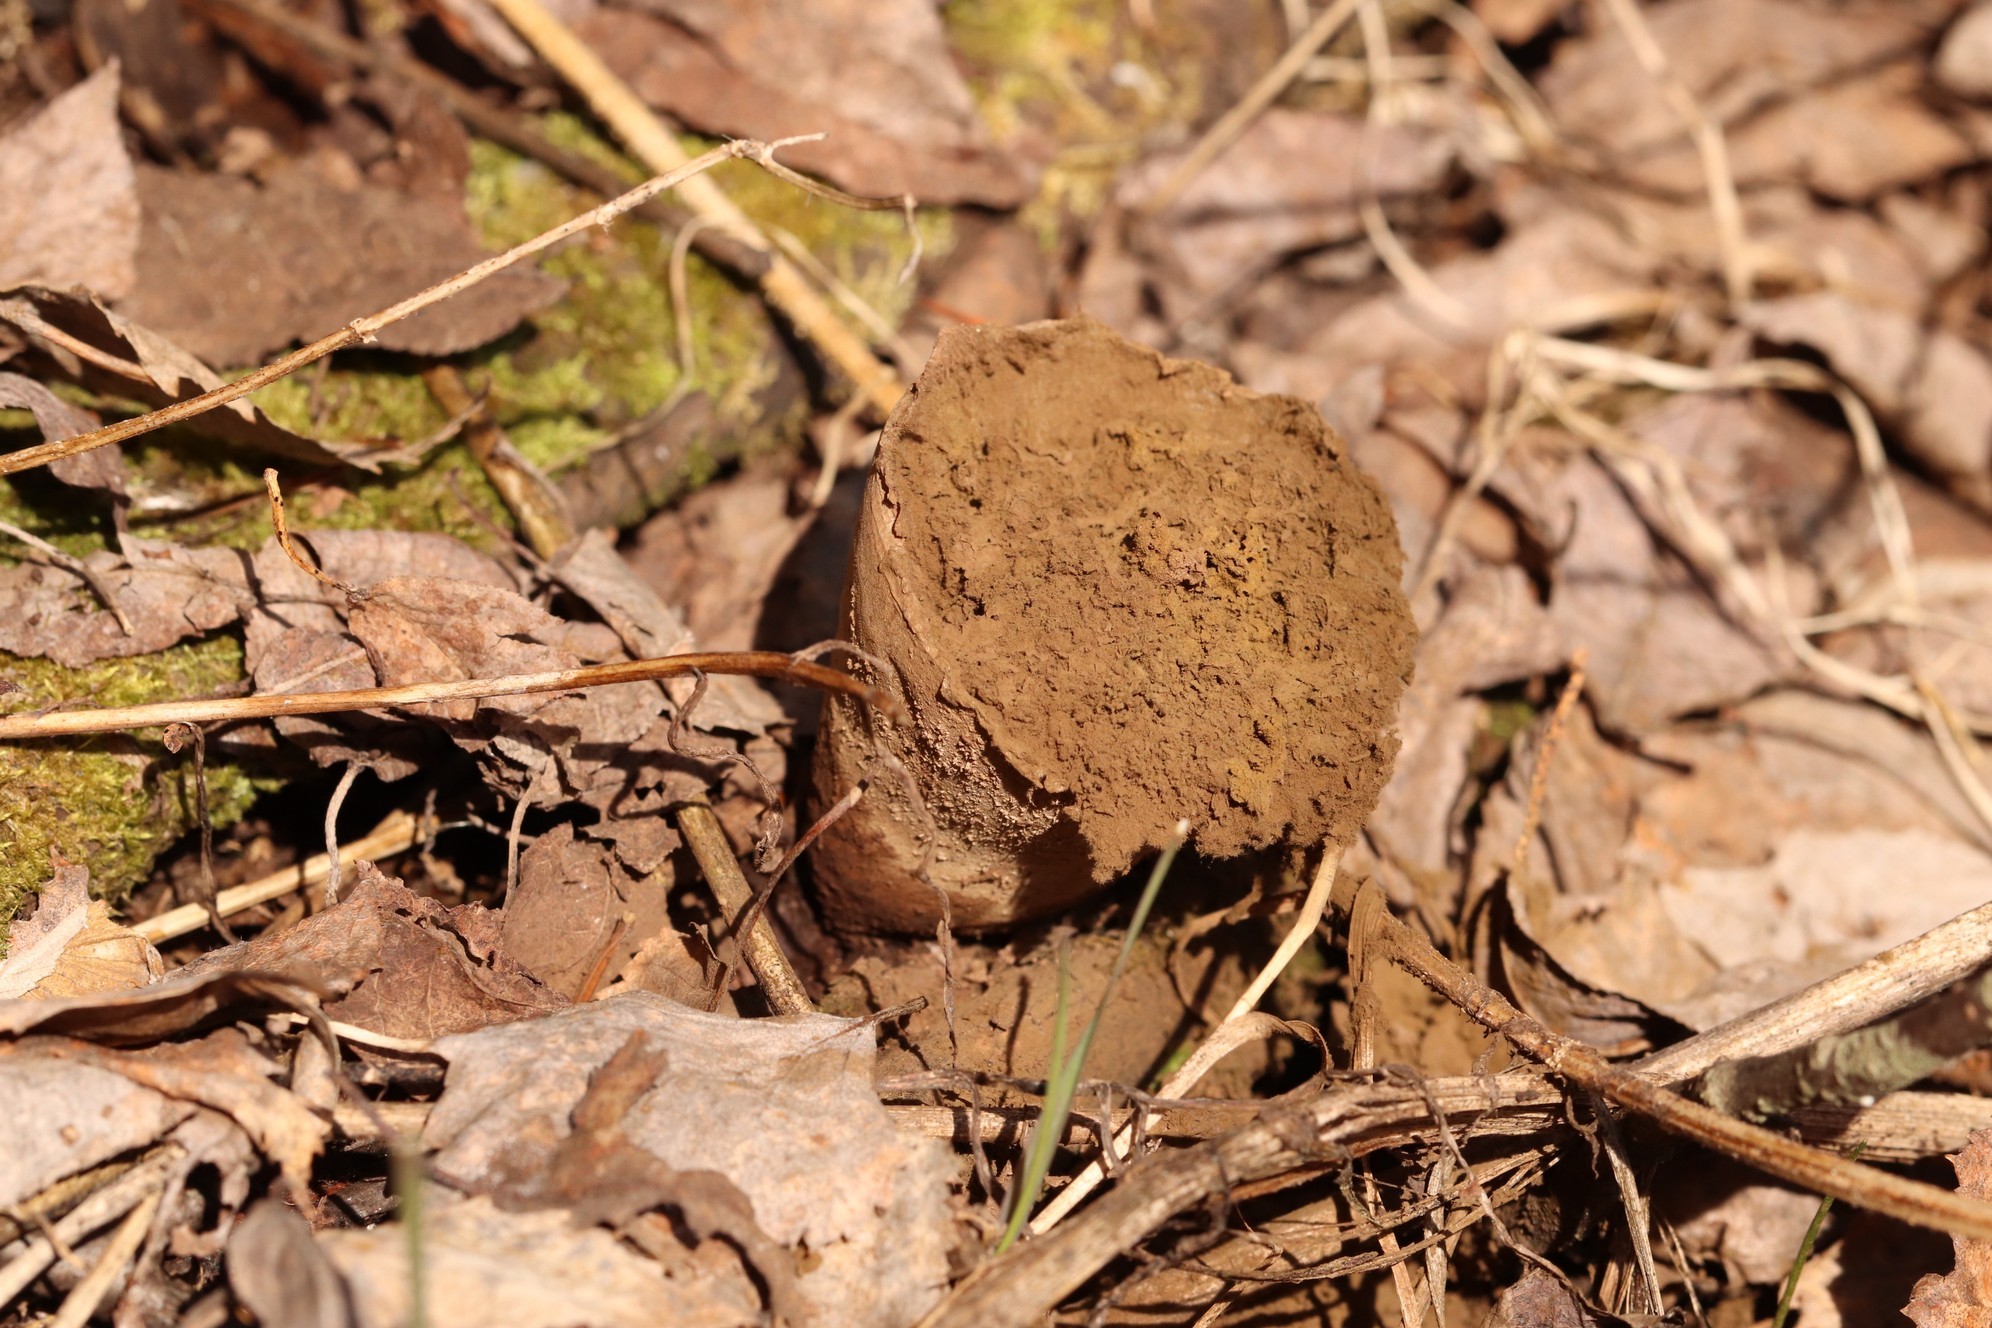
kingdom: Fungi
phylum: Basidiomycota
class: Agaricomycetes
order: Agaricales
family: Lycoperdaceae
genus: Bovistella
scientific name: Bovistella utriformis
